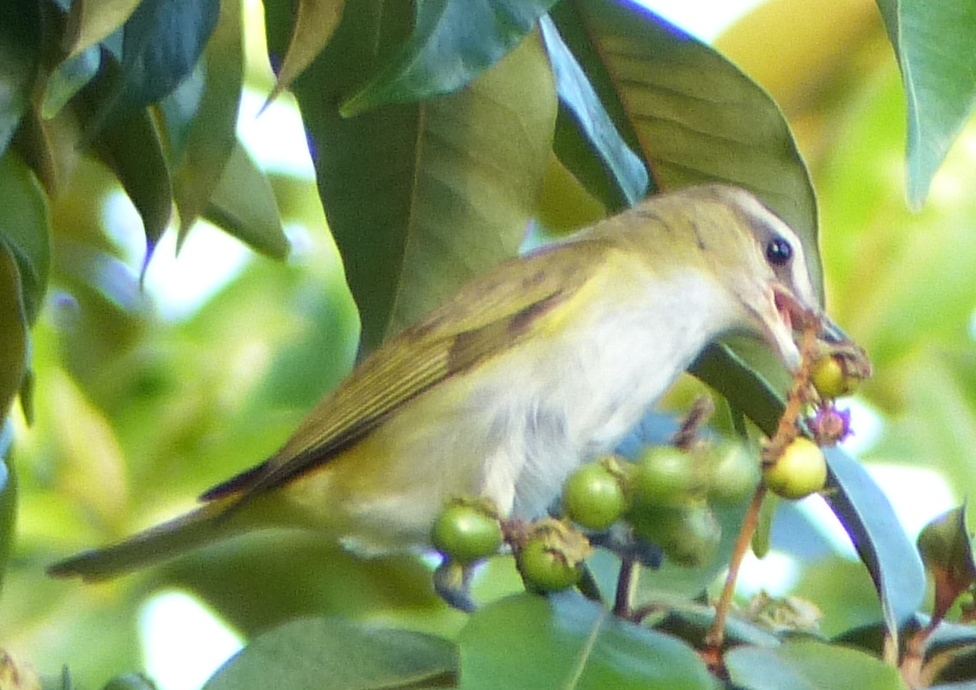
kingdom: Animalia
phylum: Chordata
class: Aves
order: Passeriformes
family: Vireonidae
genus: Vireo
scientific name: Vireo olivaceus
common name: Red-eyed vireo
